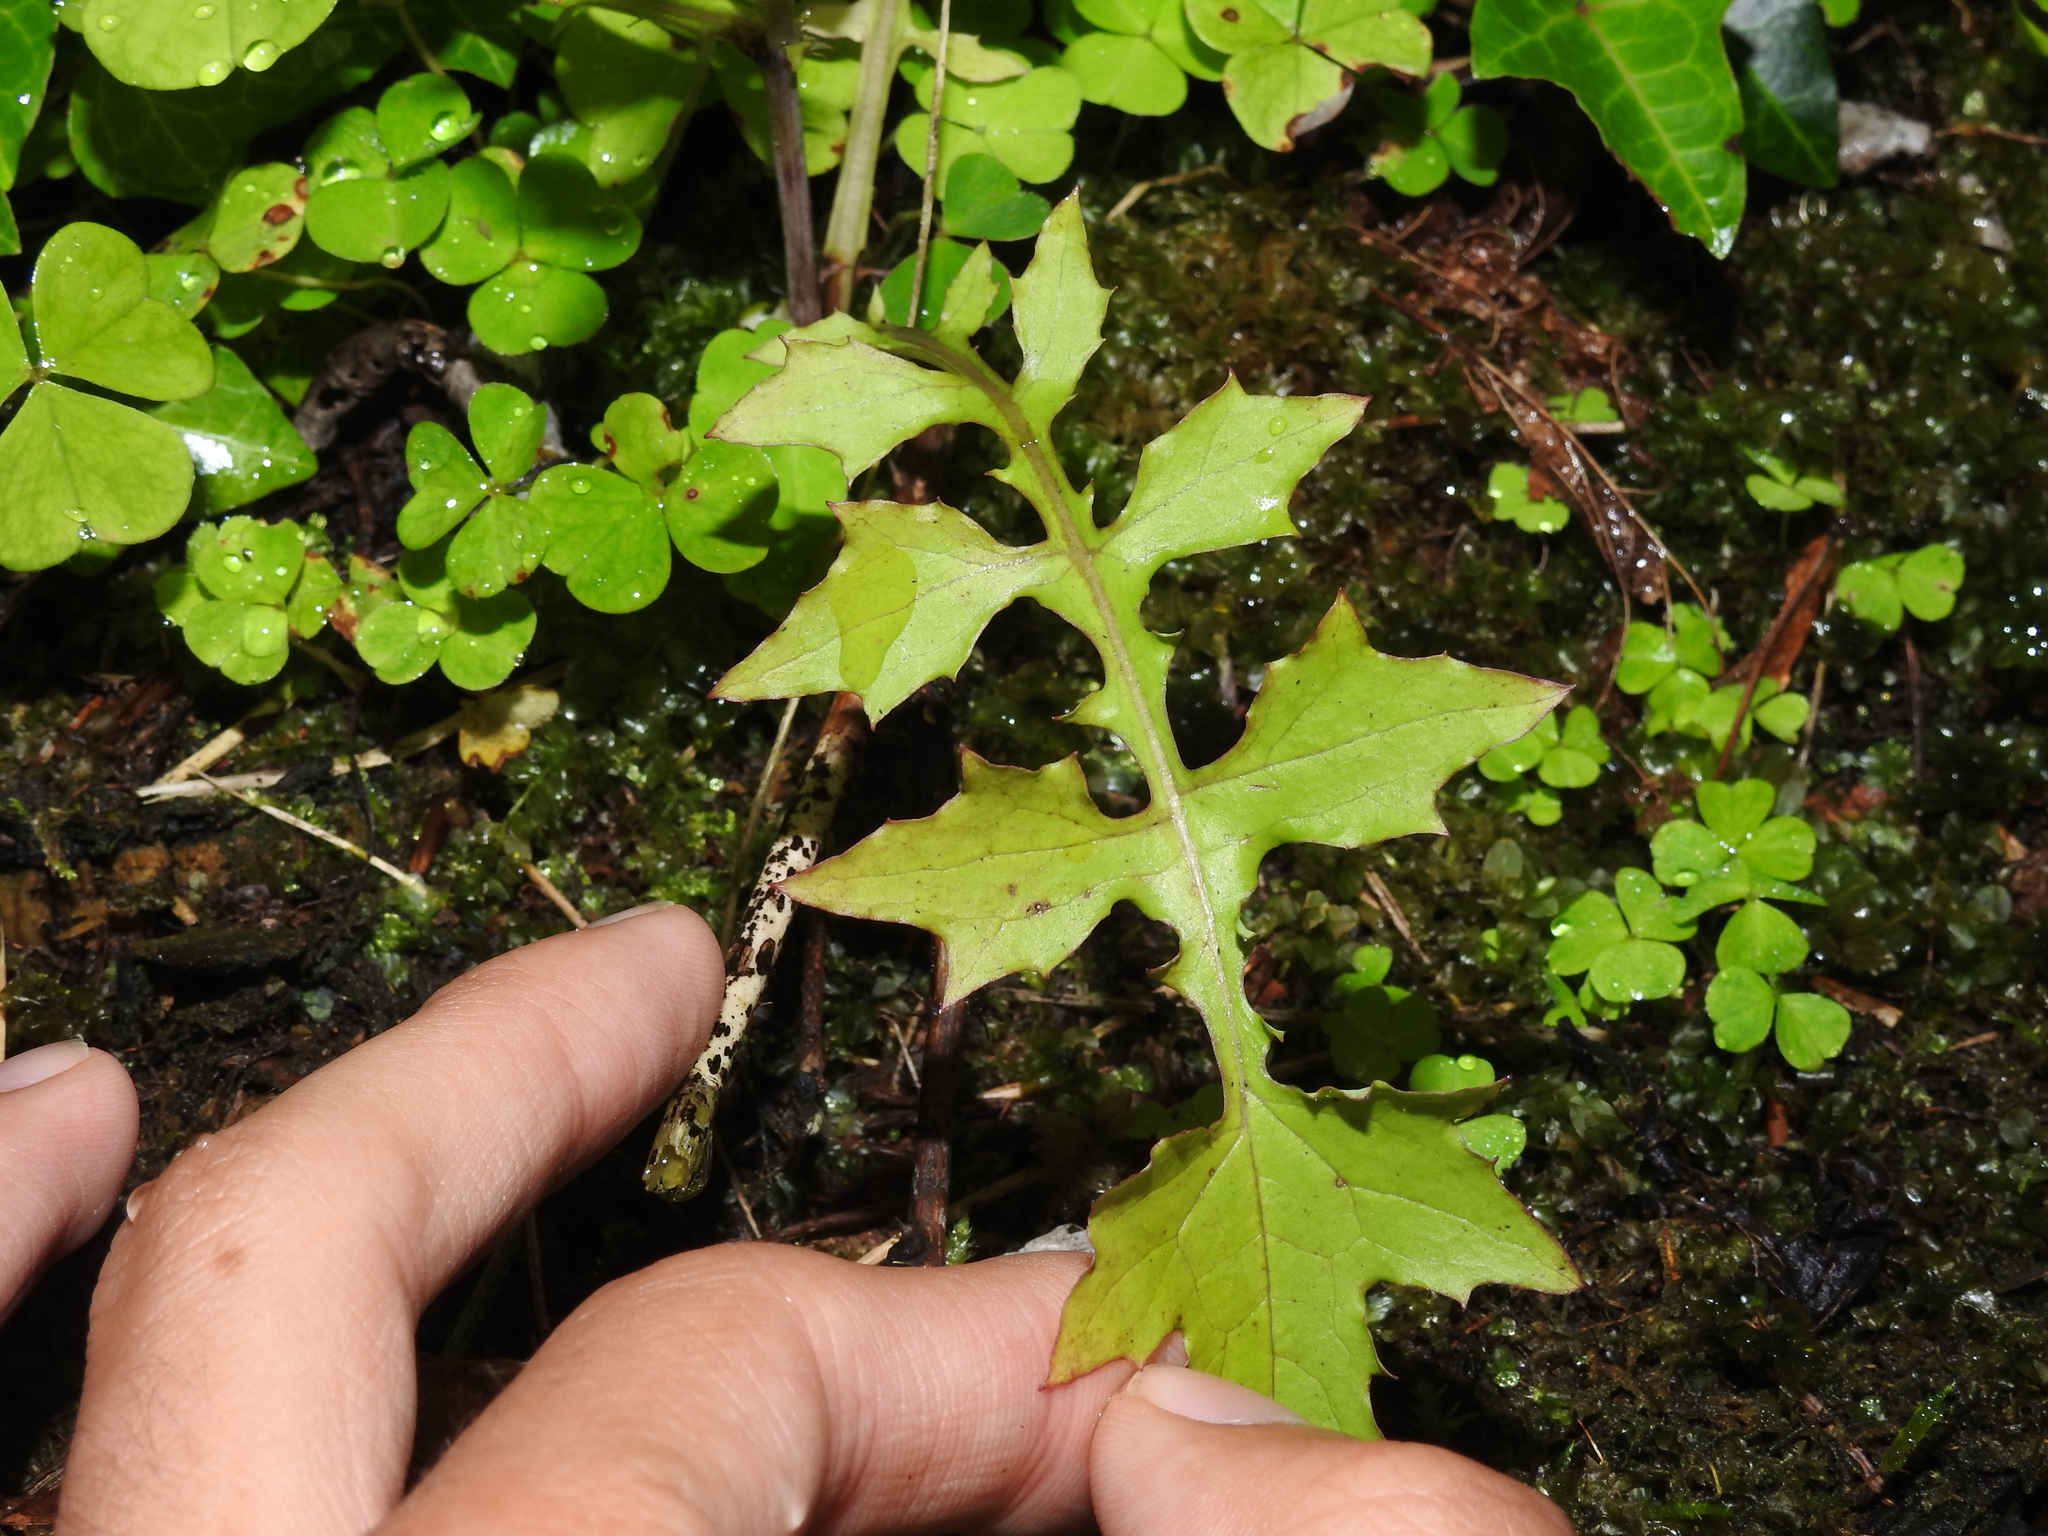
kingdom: Plantae
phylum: Tracheophyta
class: Magnoliopsida
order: Asterales
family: Asteraceae
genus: Mycelis
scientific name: Mycelis muralis
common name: Wall lettuce
